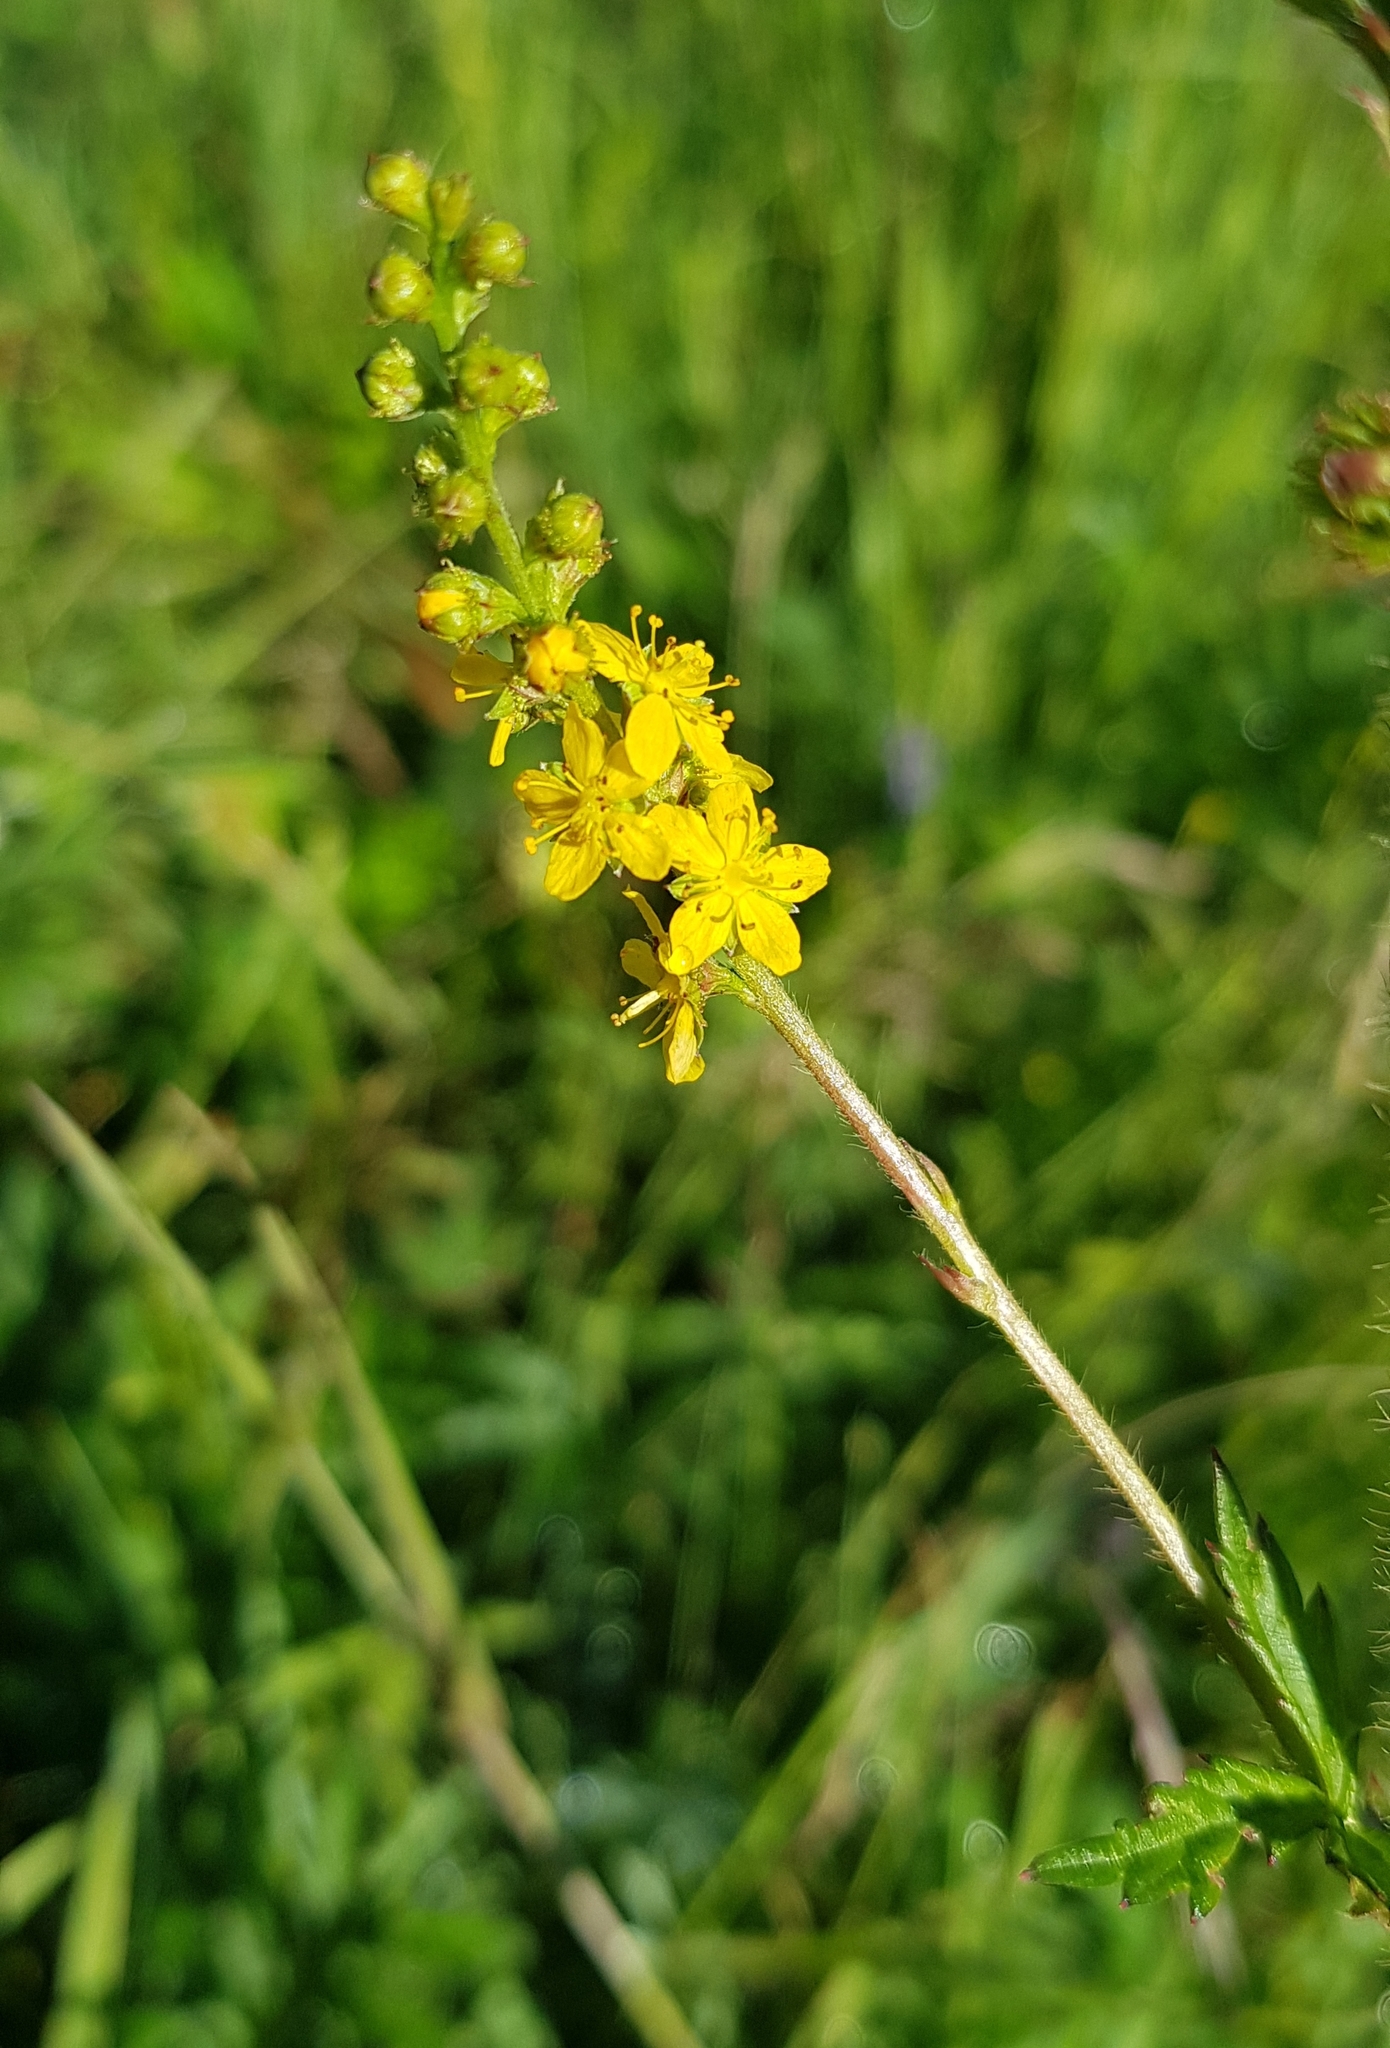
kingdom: Plantae
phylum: Tracheophyta
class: Magnoliopsida
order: Rosales
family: Rosaceae
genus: Agrimonia
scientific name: Agrimonia pilosa
